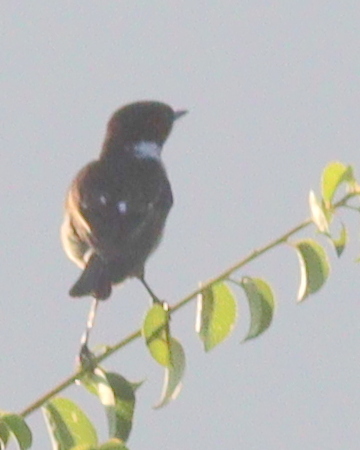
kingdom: Animalia
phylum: Chordata
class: Aves
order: Passeriformes
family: Muscicapidae
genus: Saxicola
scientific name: Saxicola rubicola
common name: European stonechat
